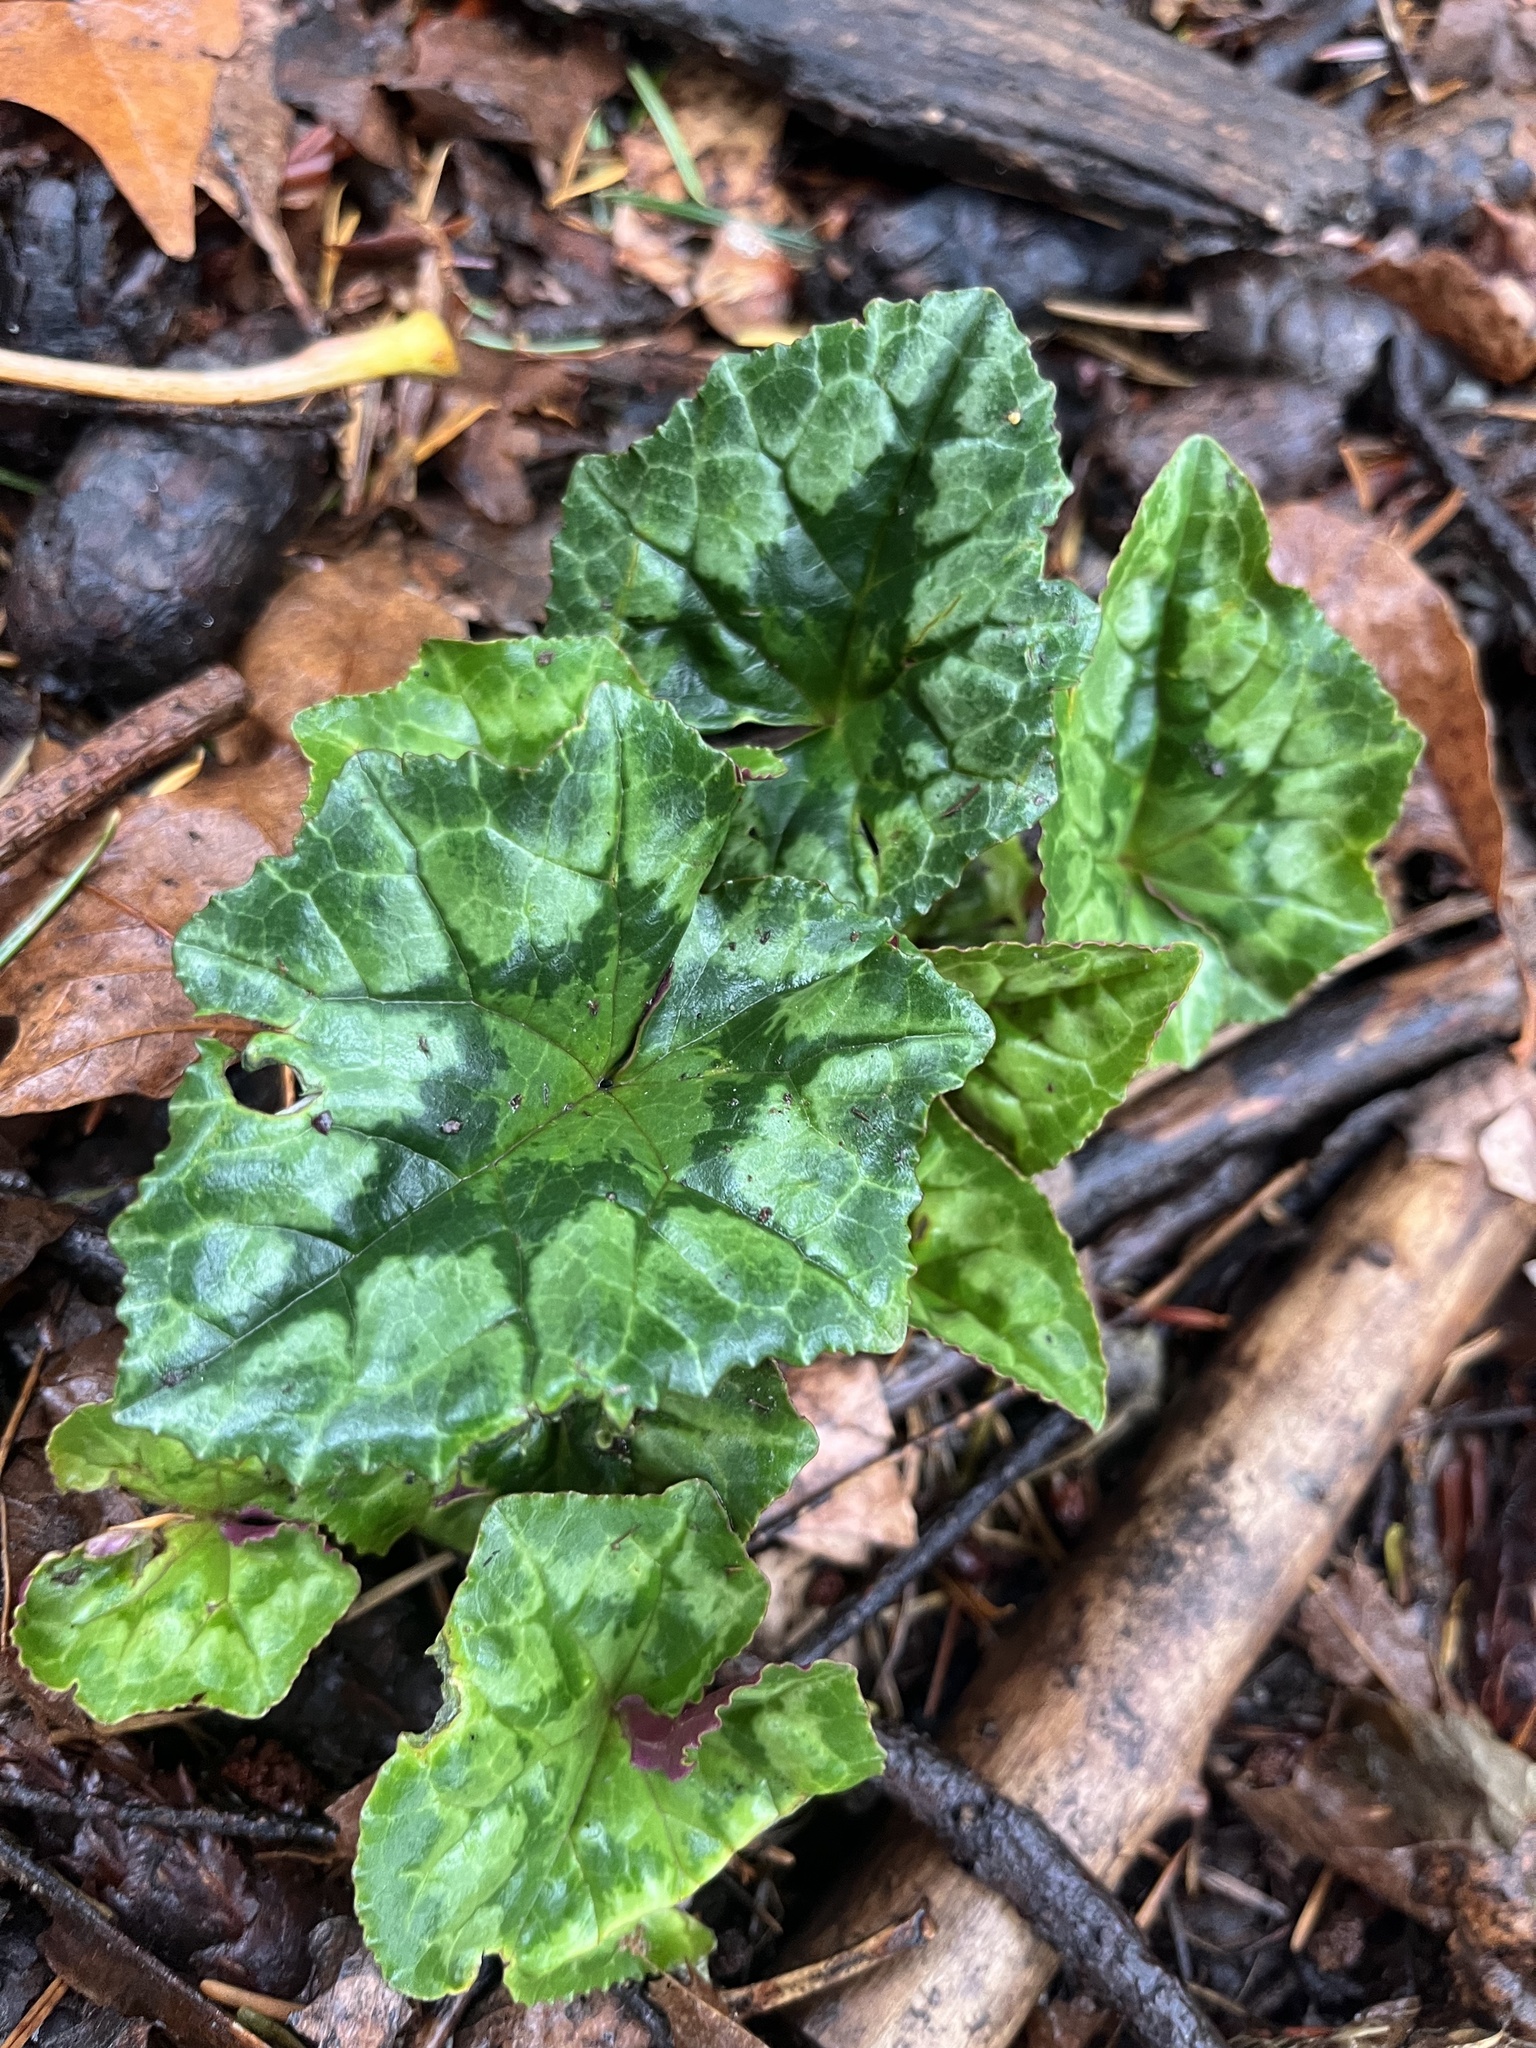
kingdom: Plantae
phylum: Tracheophyta
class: Magnoliopsida
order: Ericales
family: Primulaceae
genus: Cyclamen
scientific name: Cyclamen hederifolium
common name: Sowbread
